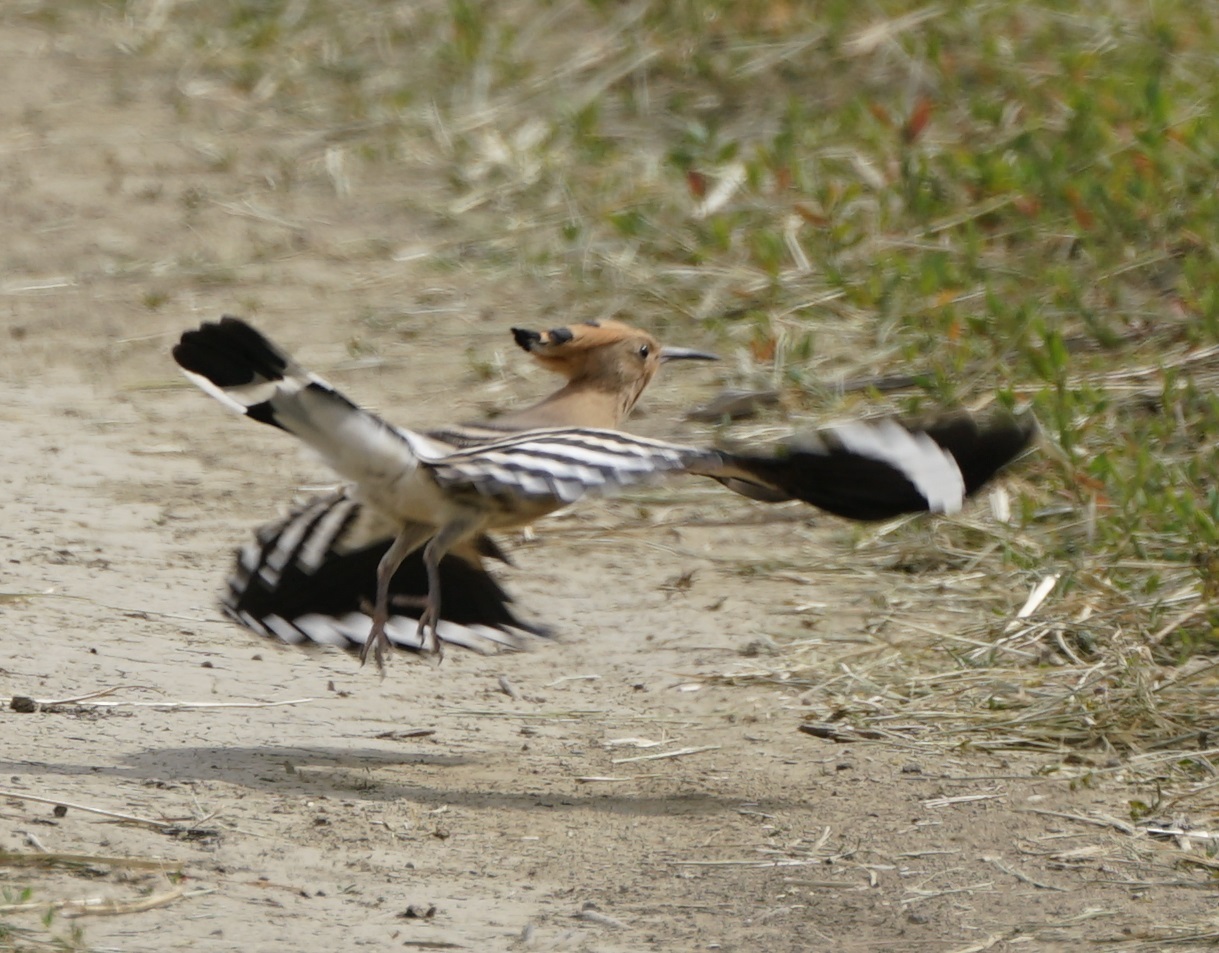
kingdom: Animalia
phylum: Chordata
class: Aves
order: Bucerotiformes
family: Upupidae
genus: Upupa
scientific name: Upupa epops
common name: Eurasian hoopoe
